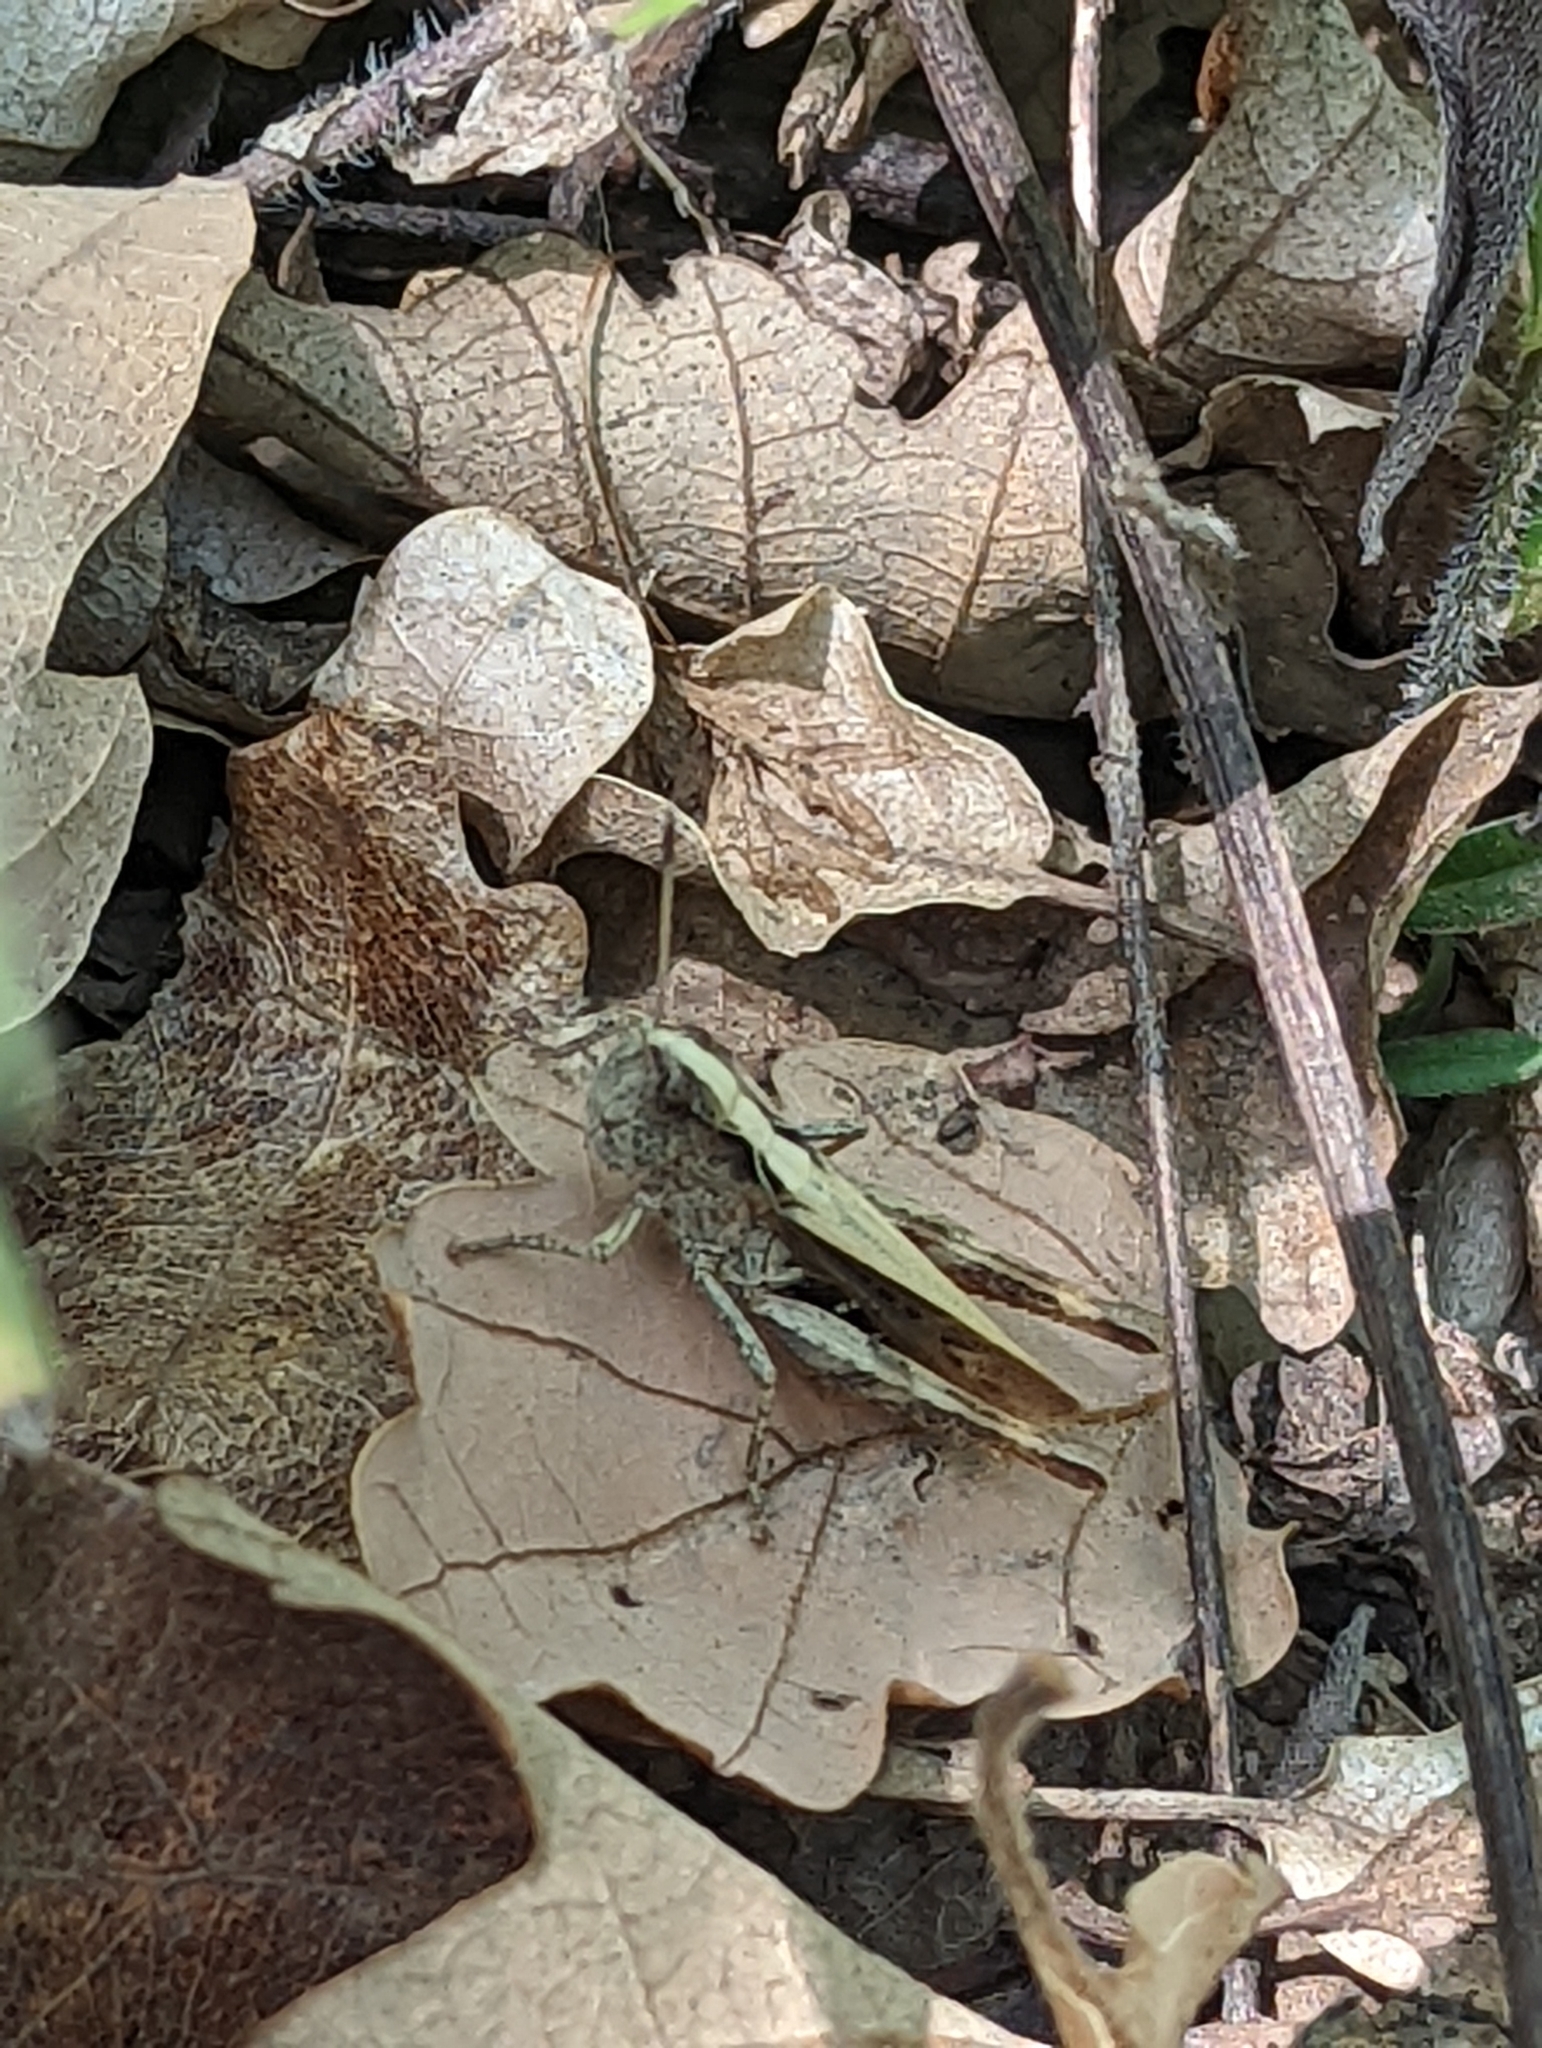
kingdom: Animalia
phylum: Arthropoda
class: Insecta
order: Orthoptera
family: Acrididae
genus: Gomphocerippus
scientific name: Gomphocerippus rufus
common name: Rufous grasshopper
